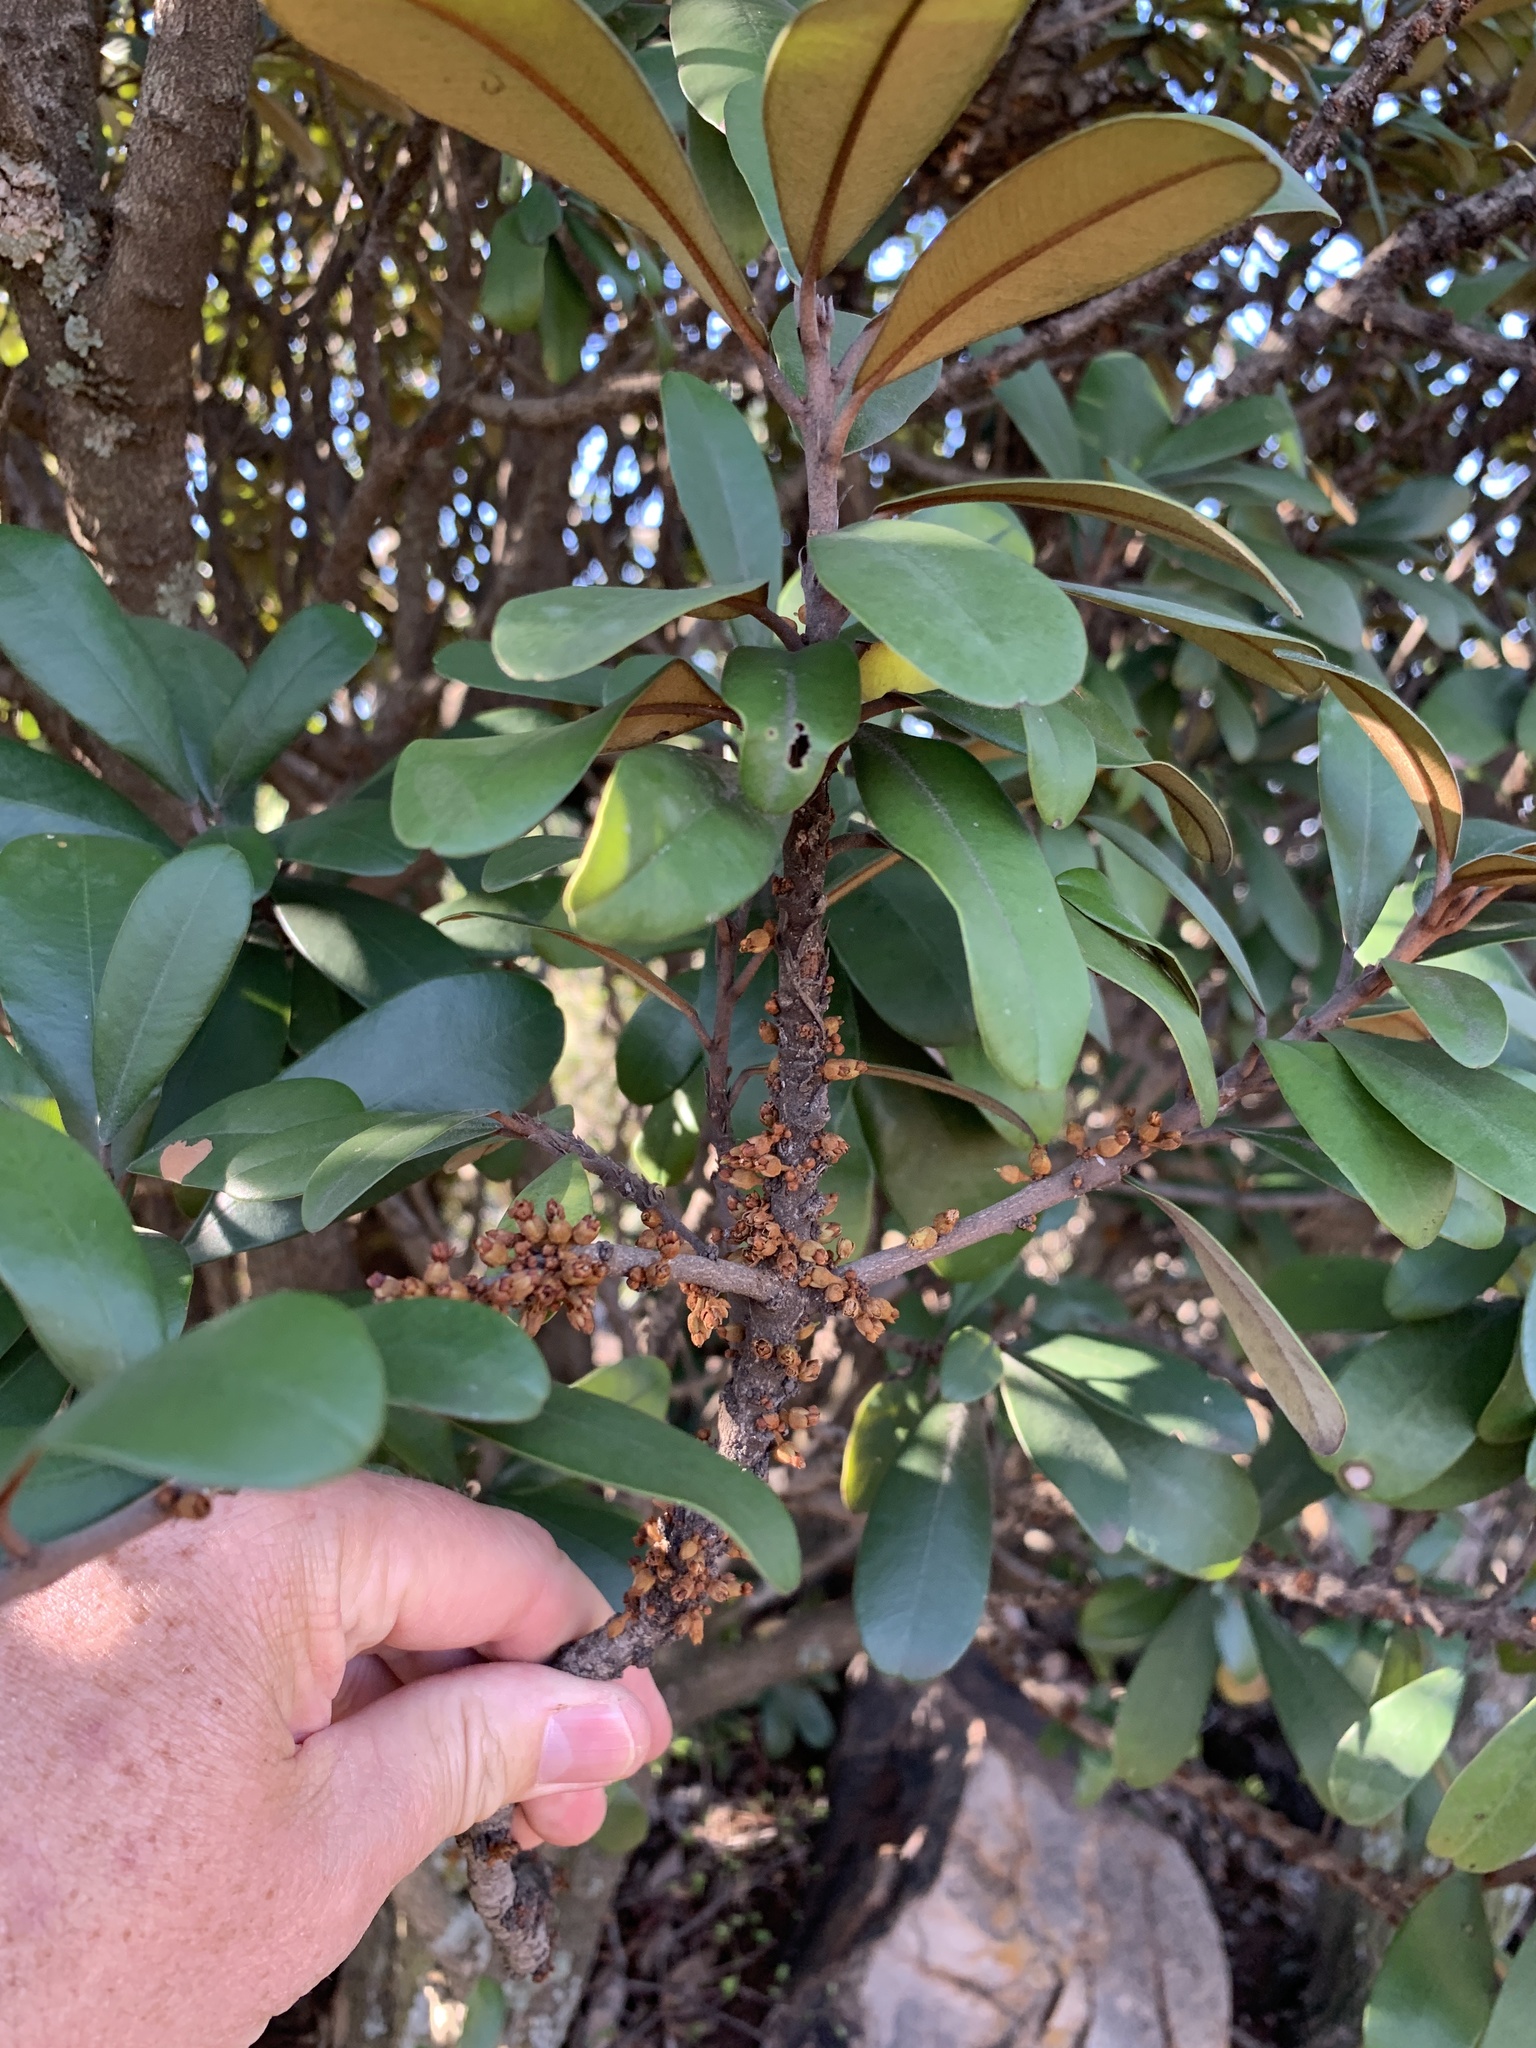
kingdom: Plantae
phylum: Tracheophyta
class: Magnoliopsida
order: Ericales
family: Sapotaceae
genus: Englerophytum
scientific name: Englerophytum magalismontanum
